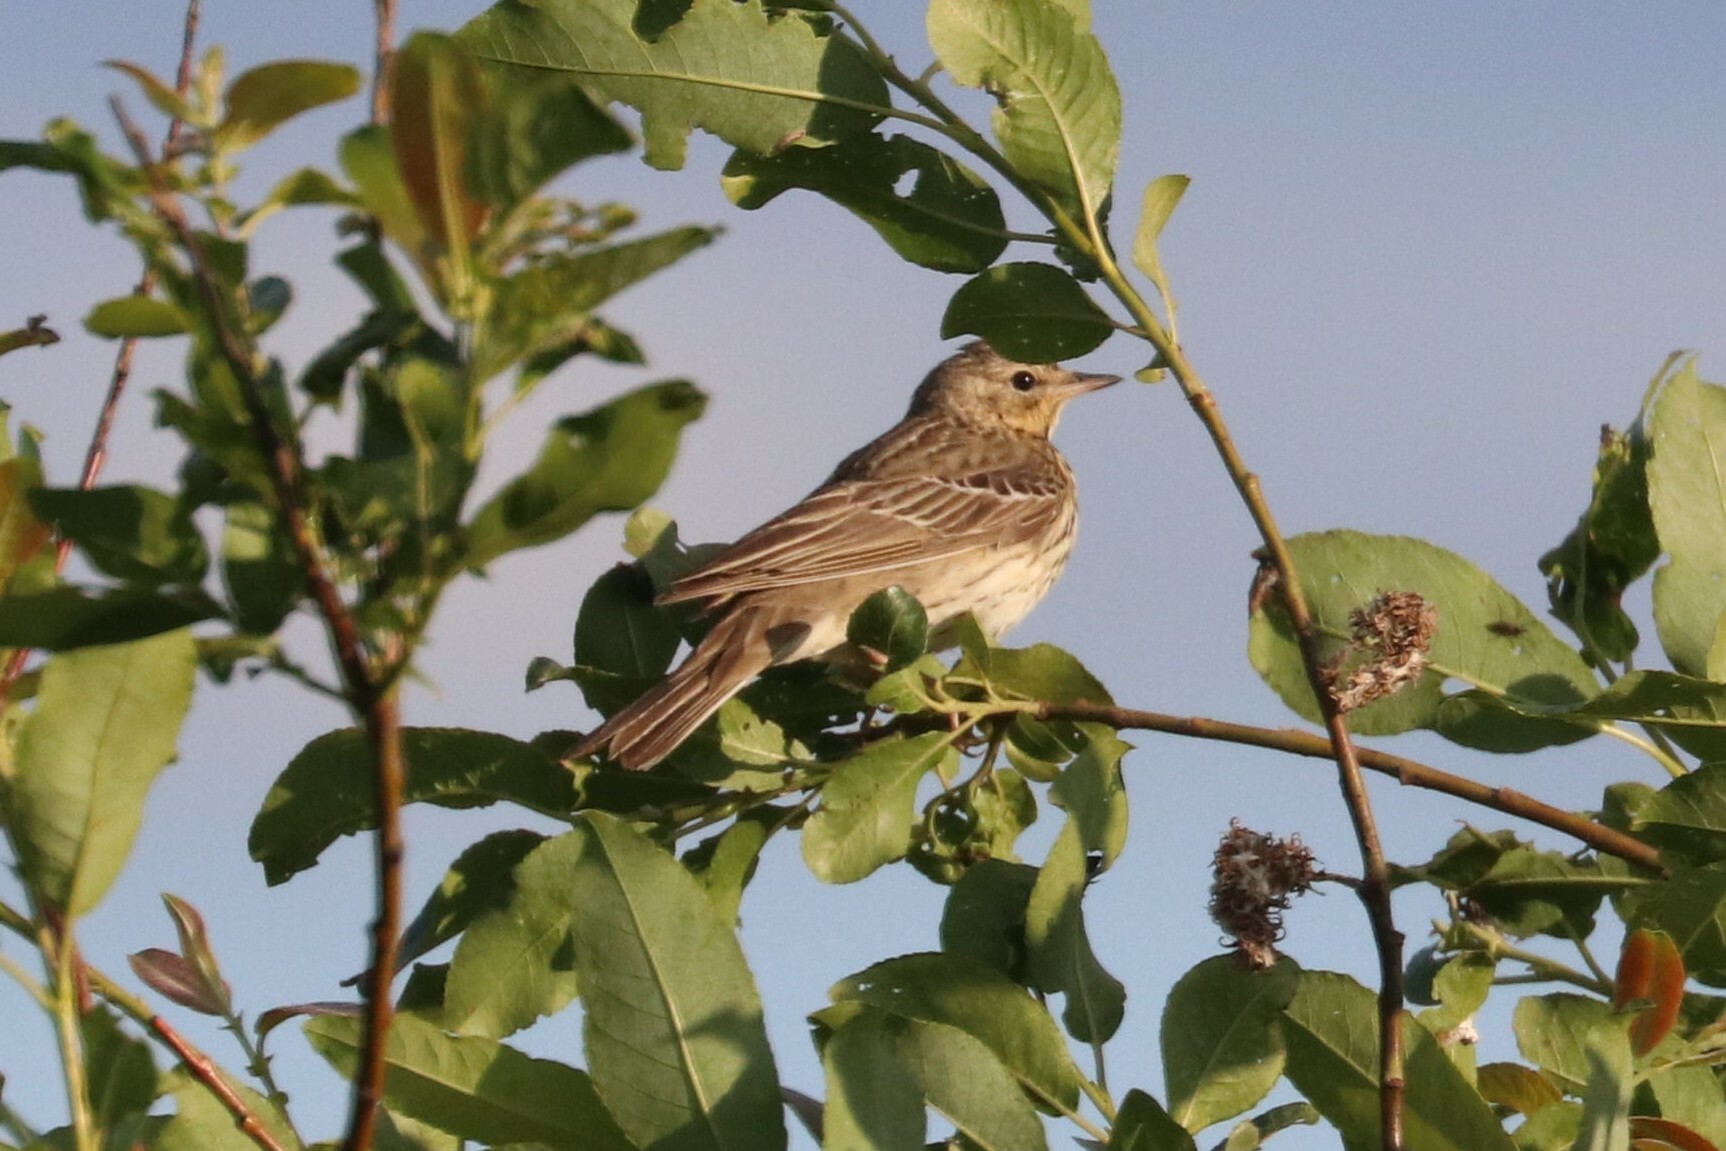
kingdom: Animalia
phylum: Chordata
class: Aves
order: Passeriformes
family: Motacillidae
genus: Anthus
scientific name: Anthus trivialis
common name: Tree pipit
